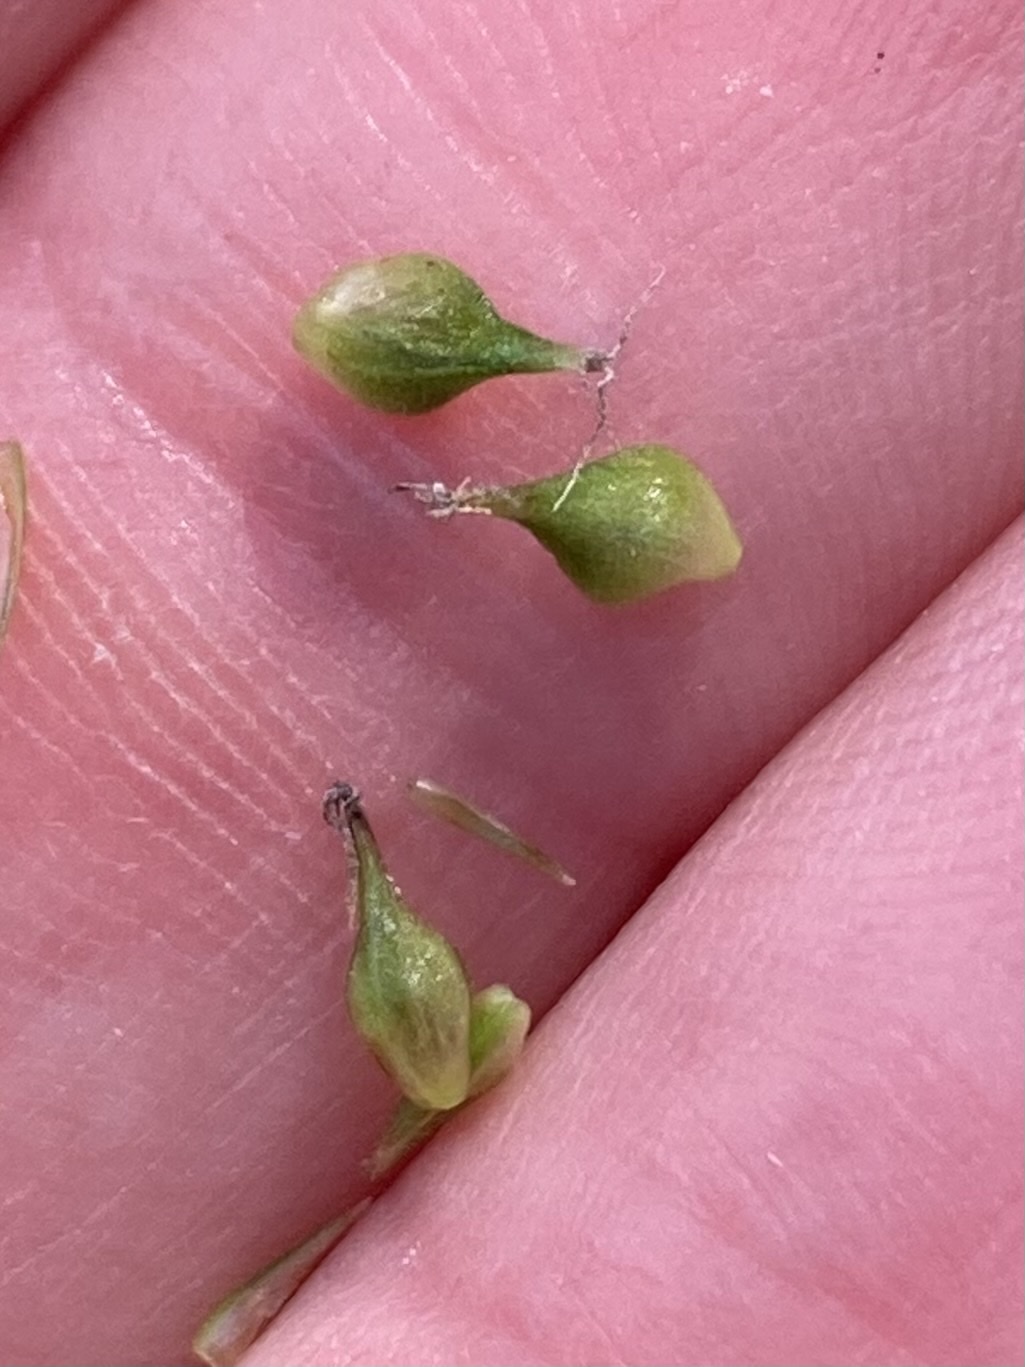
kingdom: Plantae
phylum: Tracheophyta
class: Liliopsida
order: Poales
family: Cyperaceae
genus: Carex
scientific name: Carex scabrata
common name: Eastern rough sedge
